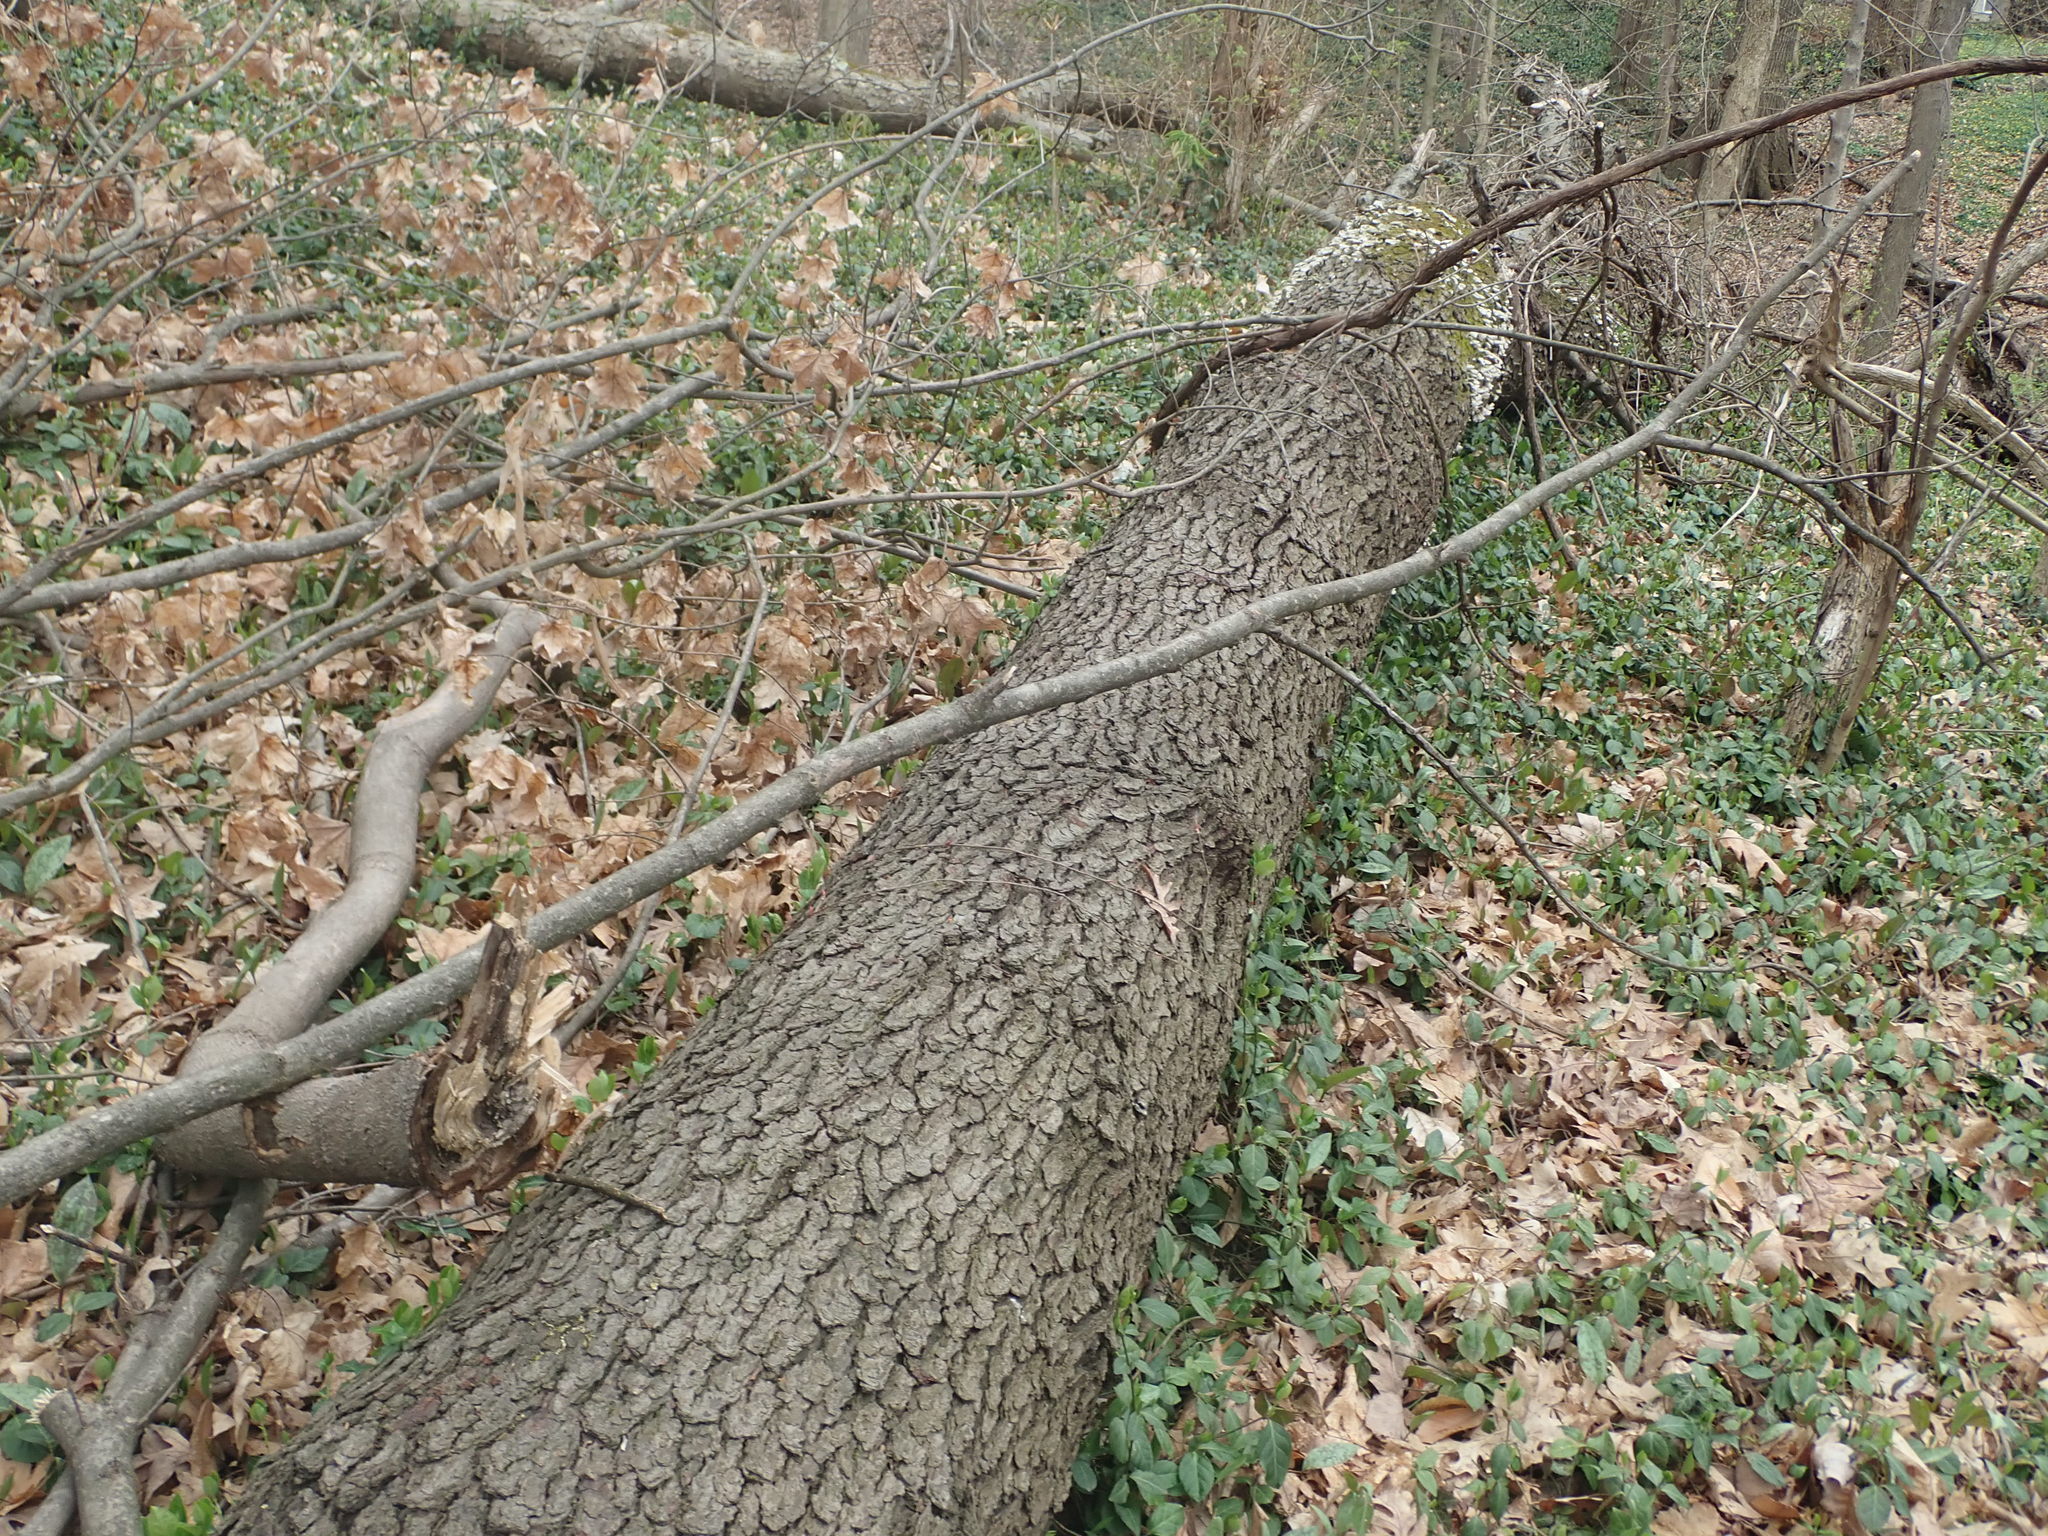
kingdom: Plantae
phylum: Tracheophyta
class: Magnoliopsida
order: Rosales
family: Rosaceae
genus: Prunus
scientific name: Prunus serotina
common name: Black cherry
